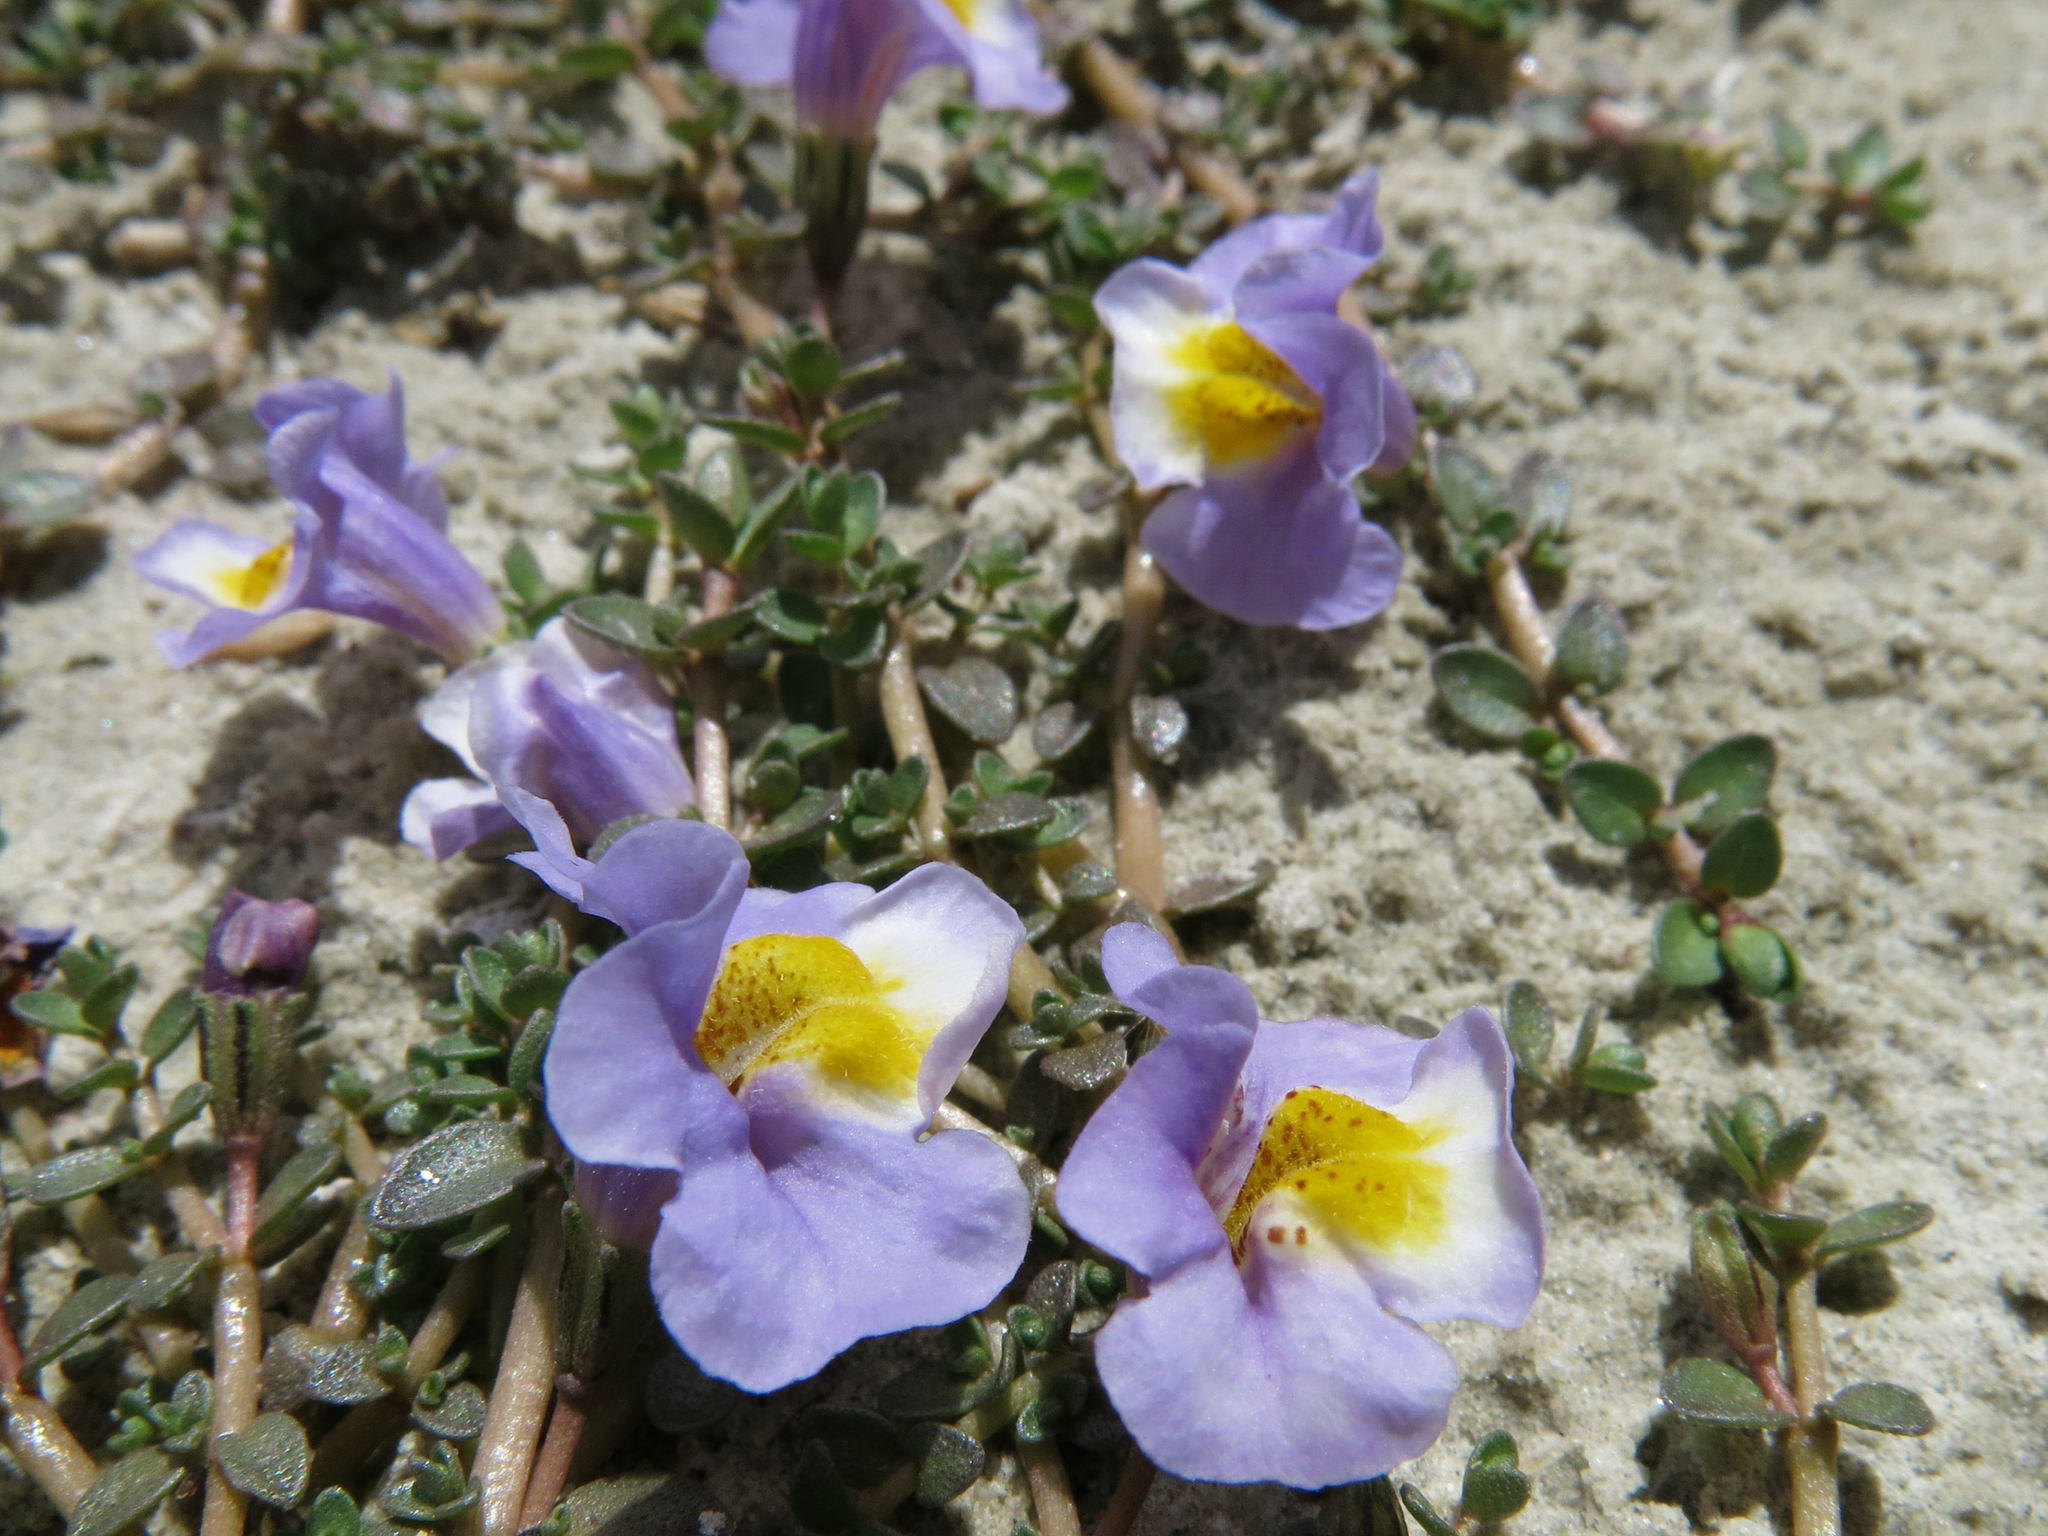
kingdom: Plantae
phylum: Tracheophyta
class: Magnoliopsida
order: Lamiales
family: Phrymaceae
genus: Thyridia
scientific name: Thyridia repens
